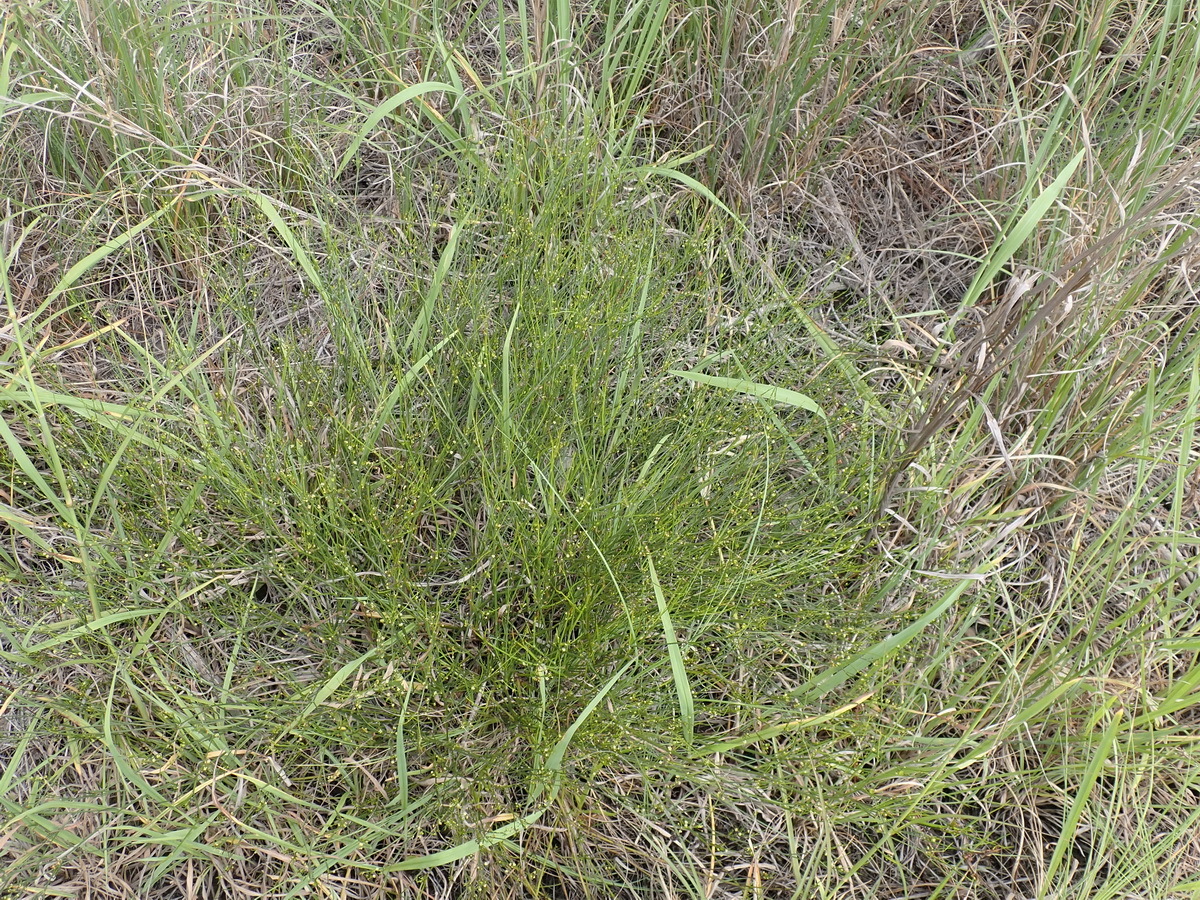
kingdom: Plantae
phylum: Tracheophyta
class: Magnoliopsida
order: Apiales
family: Apiaceae
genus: Centella
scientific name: Centella virgata
